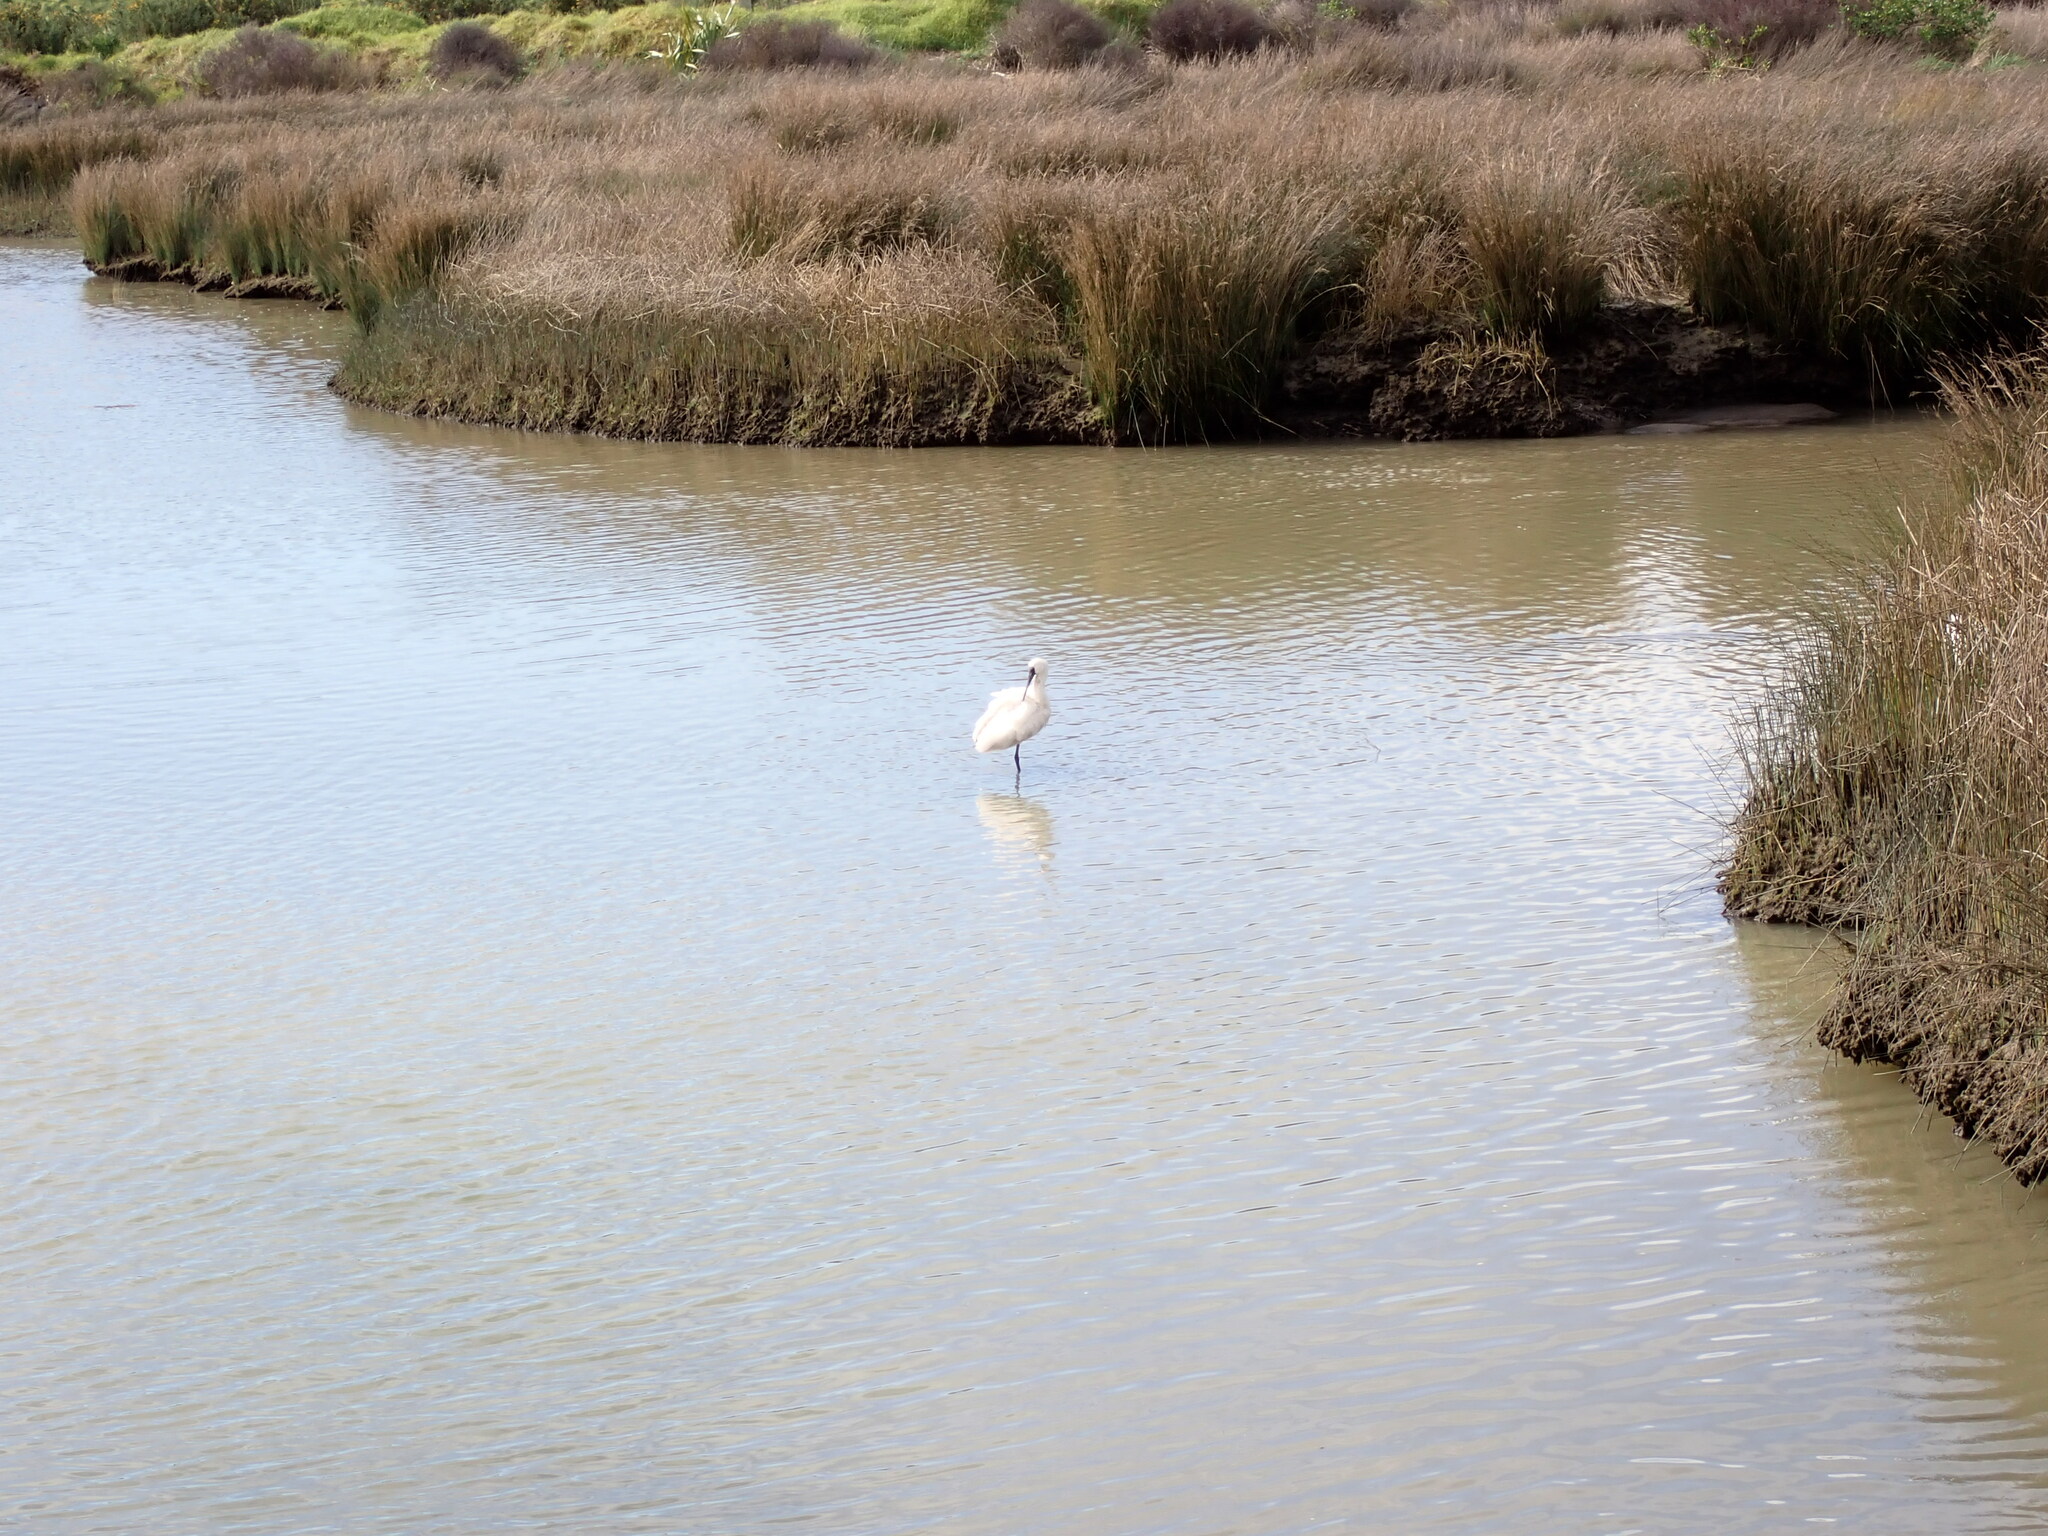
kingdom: Animalia
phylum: Chordata
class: Aves
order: Pelecaniformes
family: Threskiornithidae
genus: Platalea
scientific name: Platalea regia
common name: Royal spoonbill
